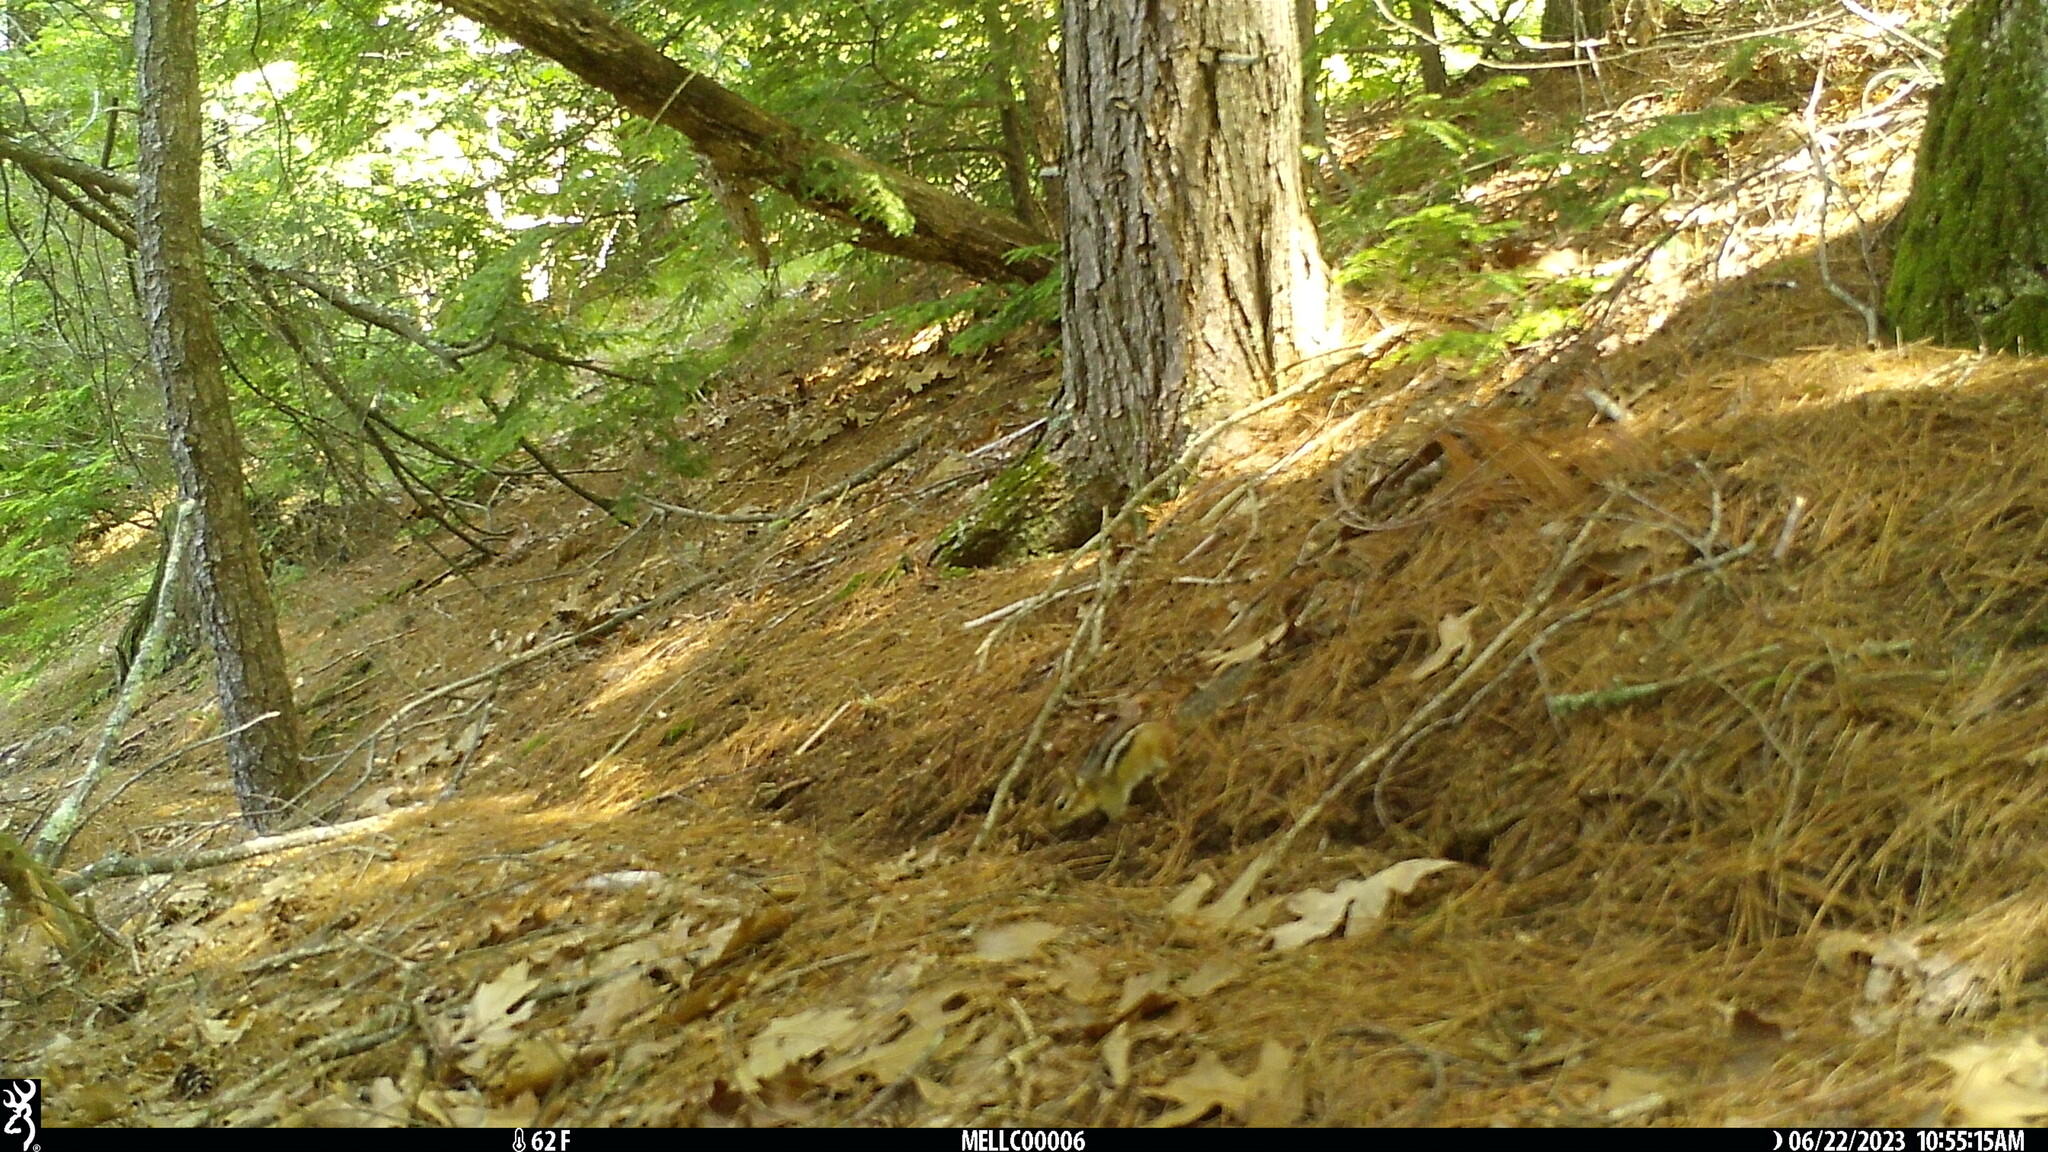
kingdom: Animalia
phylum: Chordata
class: Mammalia
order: Rodentia
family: Sciuridae
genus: Tamias
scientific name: Tamias striatus
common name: Eastern chipmunk
